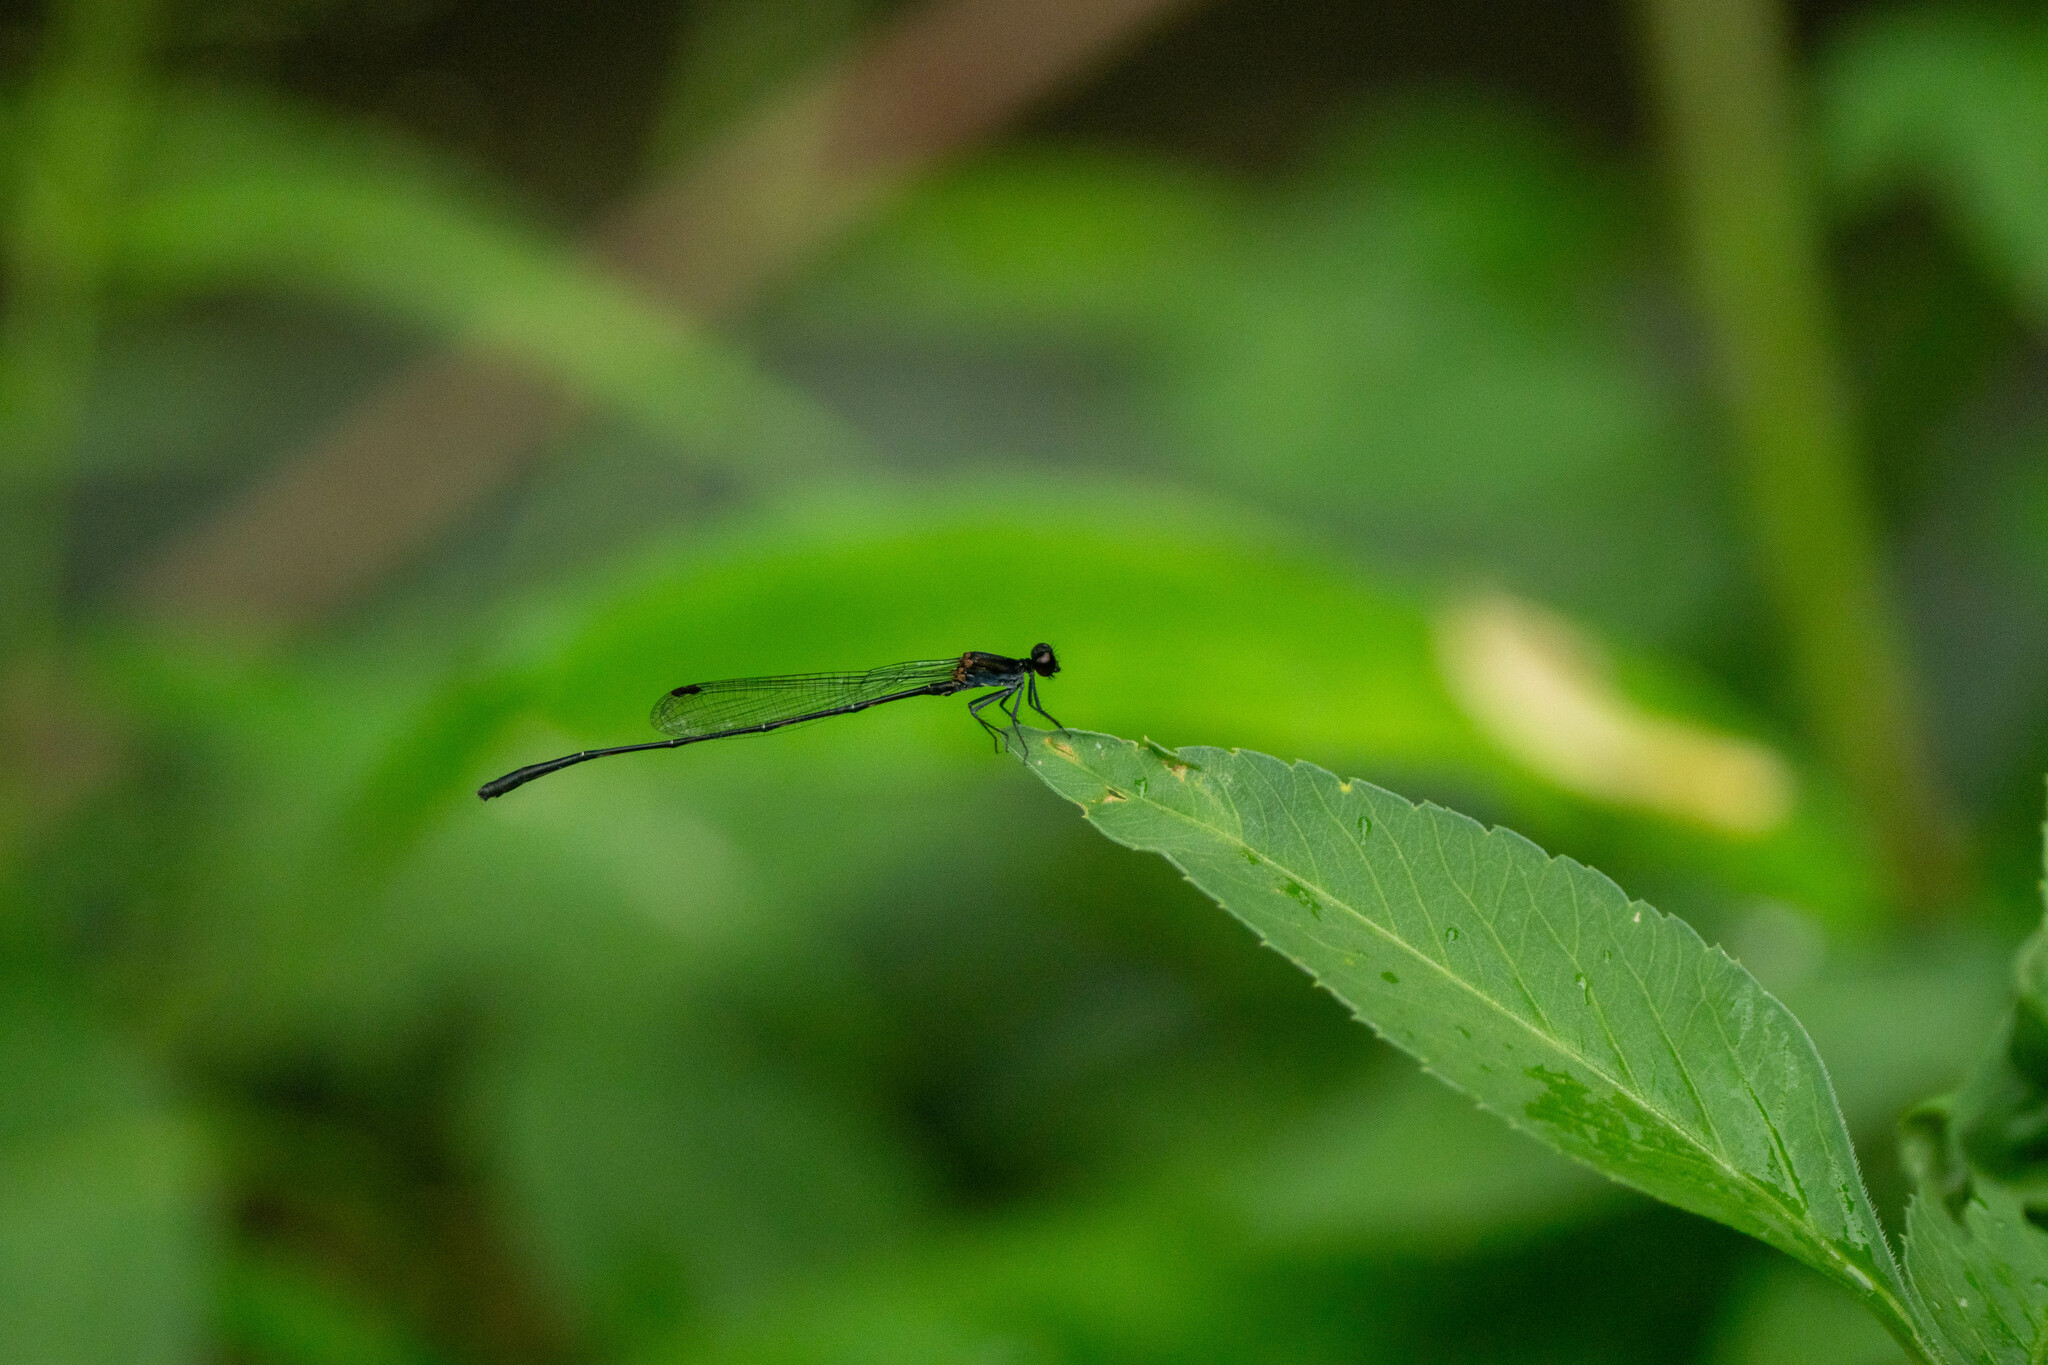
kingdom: Animalia
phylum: Arthropoda
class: Insecta
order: Odonata
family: Platycnemididae
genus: Prodasineura
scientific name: Prodasineura autumnalis
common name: Black threadtail
